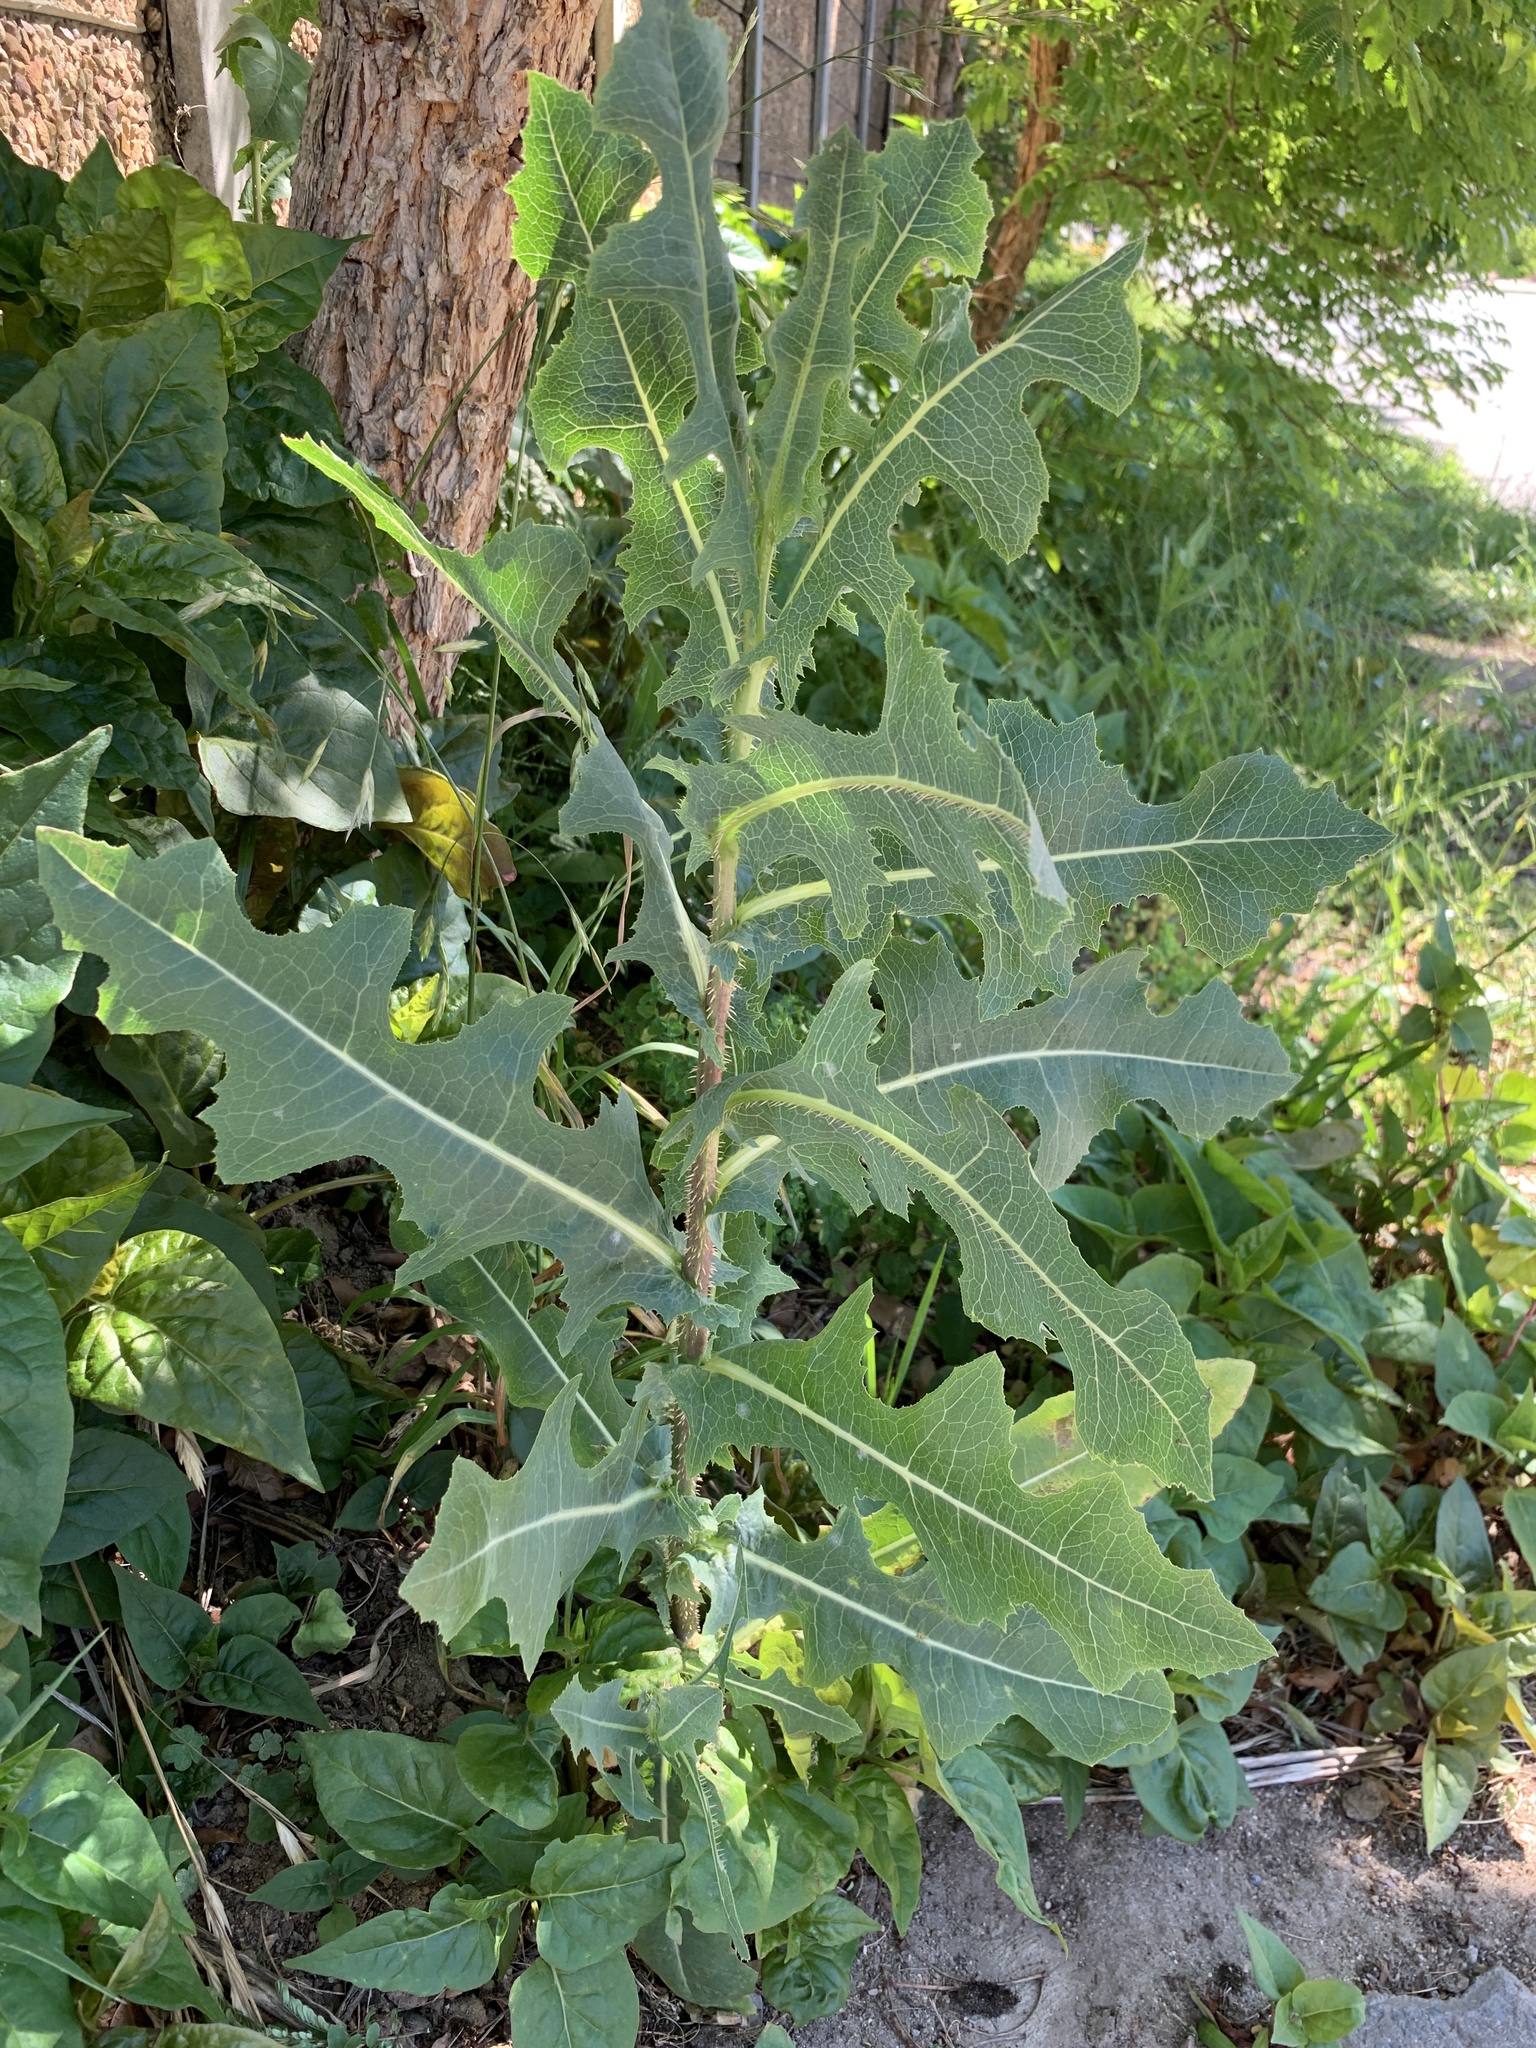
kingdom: Plantae
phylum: Tracheophyta
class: Magnoliopsida
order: Asterales
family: Asteraceae
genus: Lactuca
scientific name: Lactuca serriola
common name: Prickly lettuce
